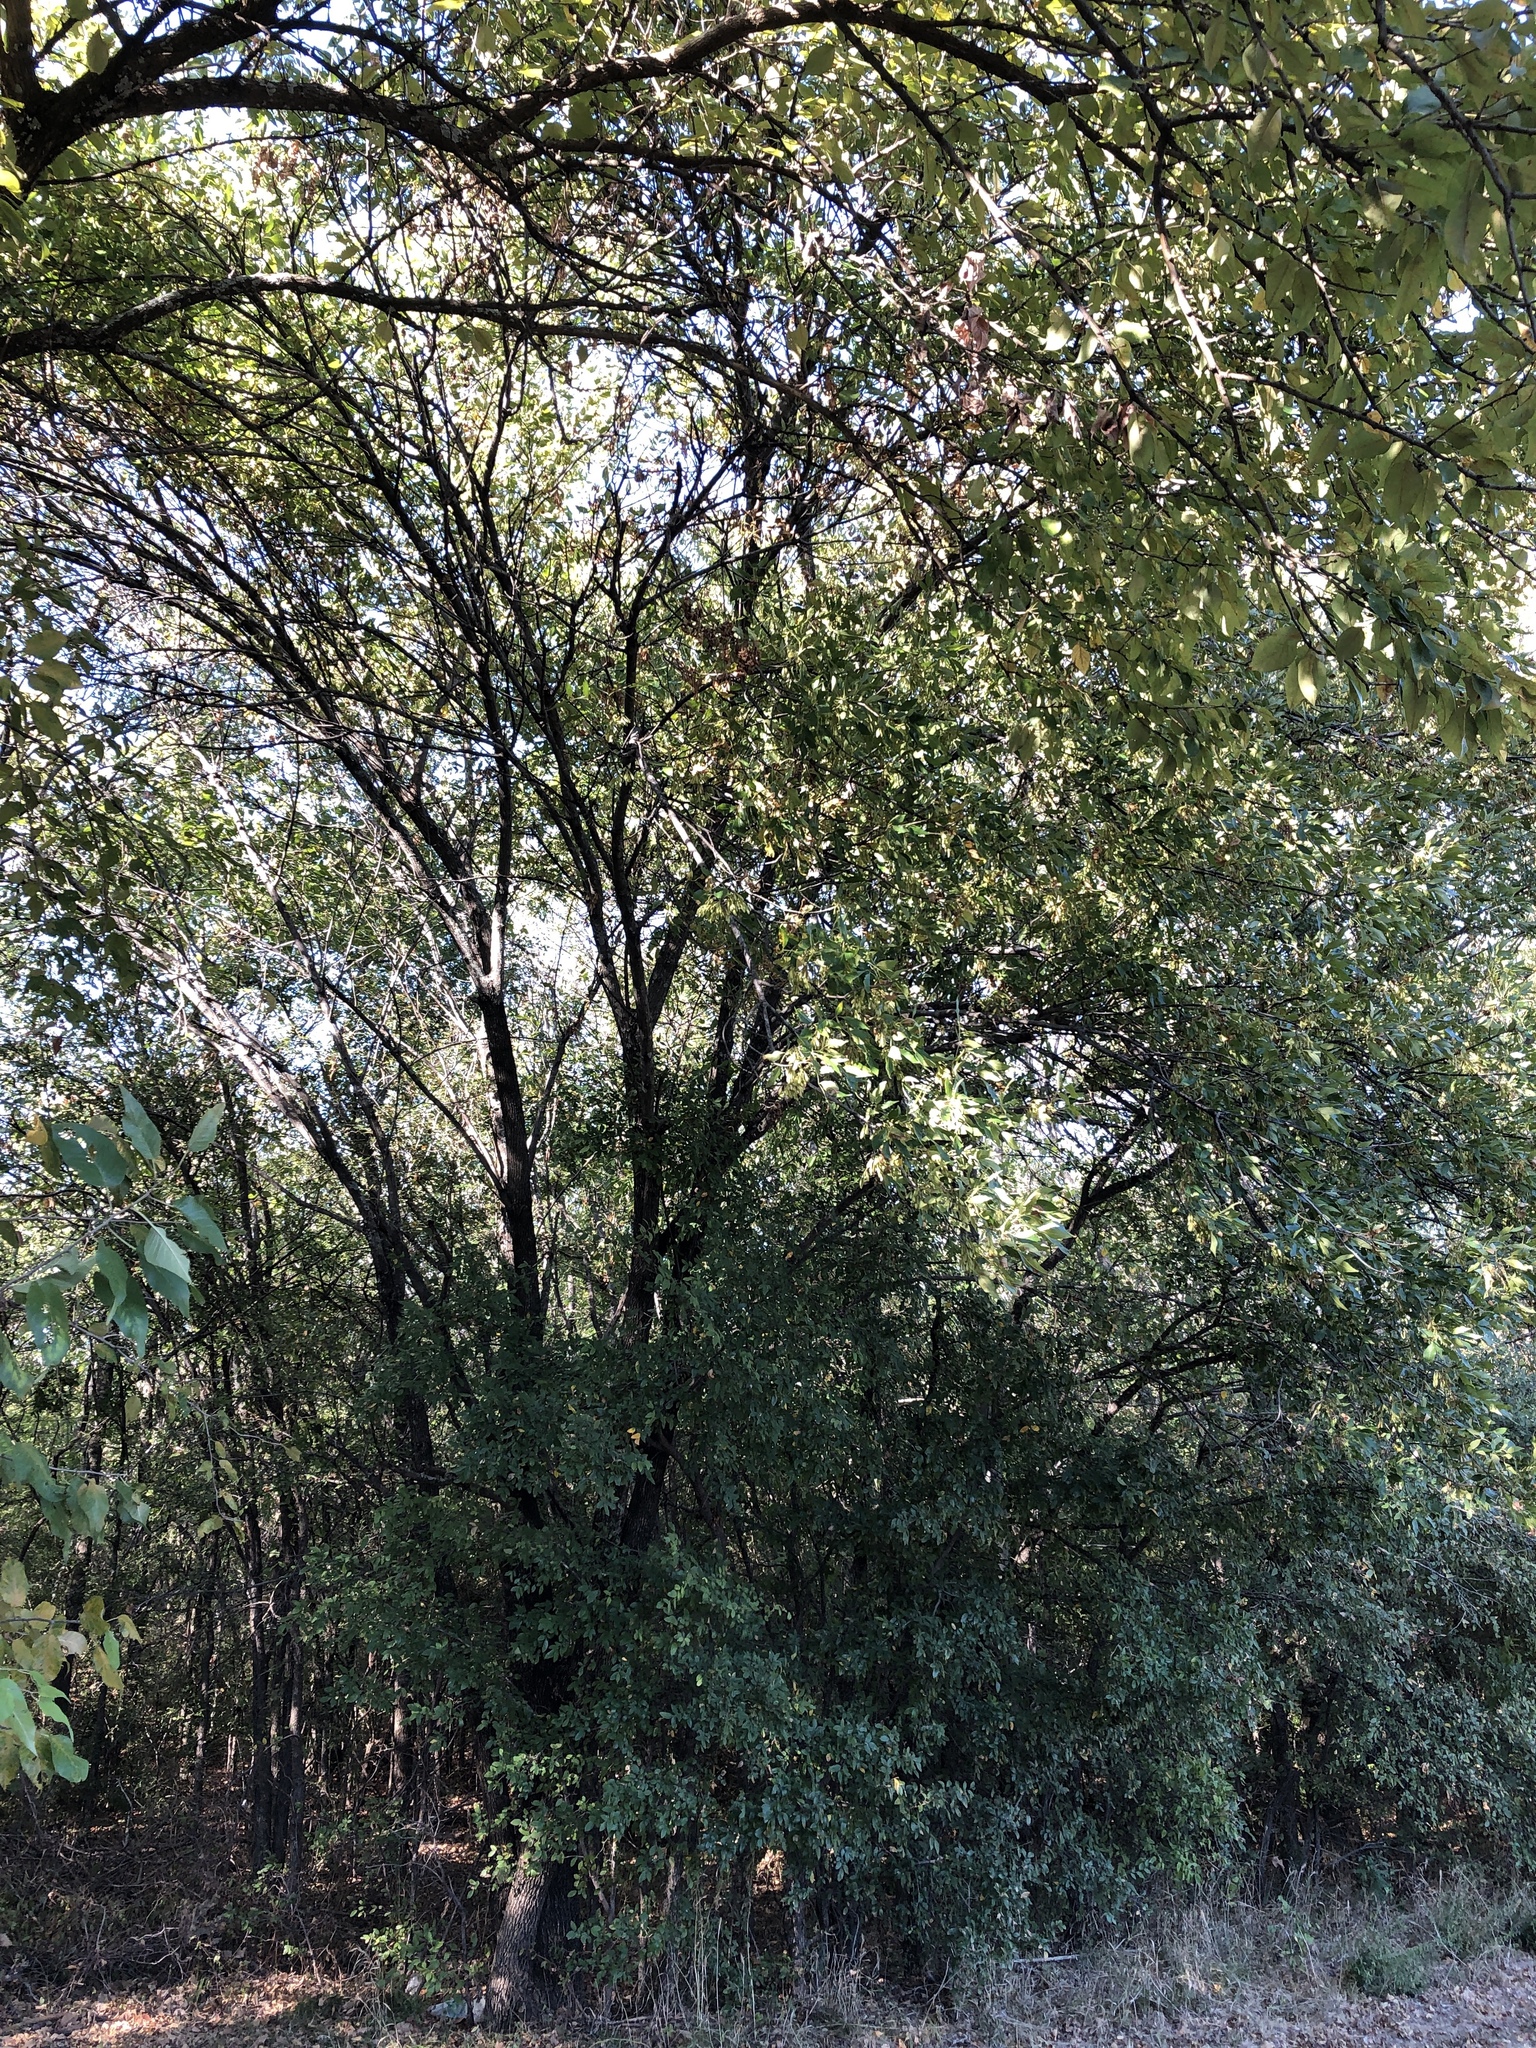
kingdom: Plantae
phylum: Tracheophyta
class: Magnoliopsida
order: Lamiales
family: Oleaceae
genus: Fraxinus
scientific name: Fraxinus pennsylvanica
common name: Green ash
